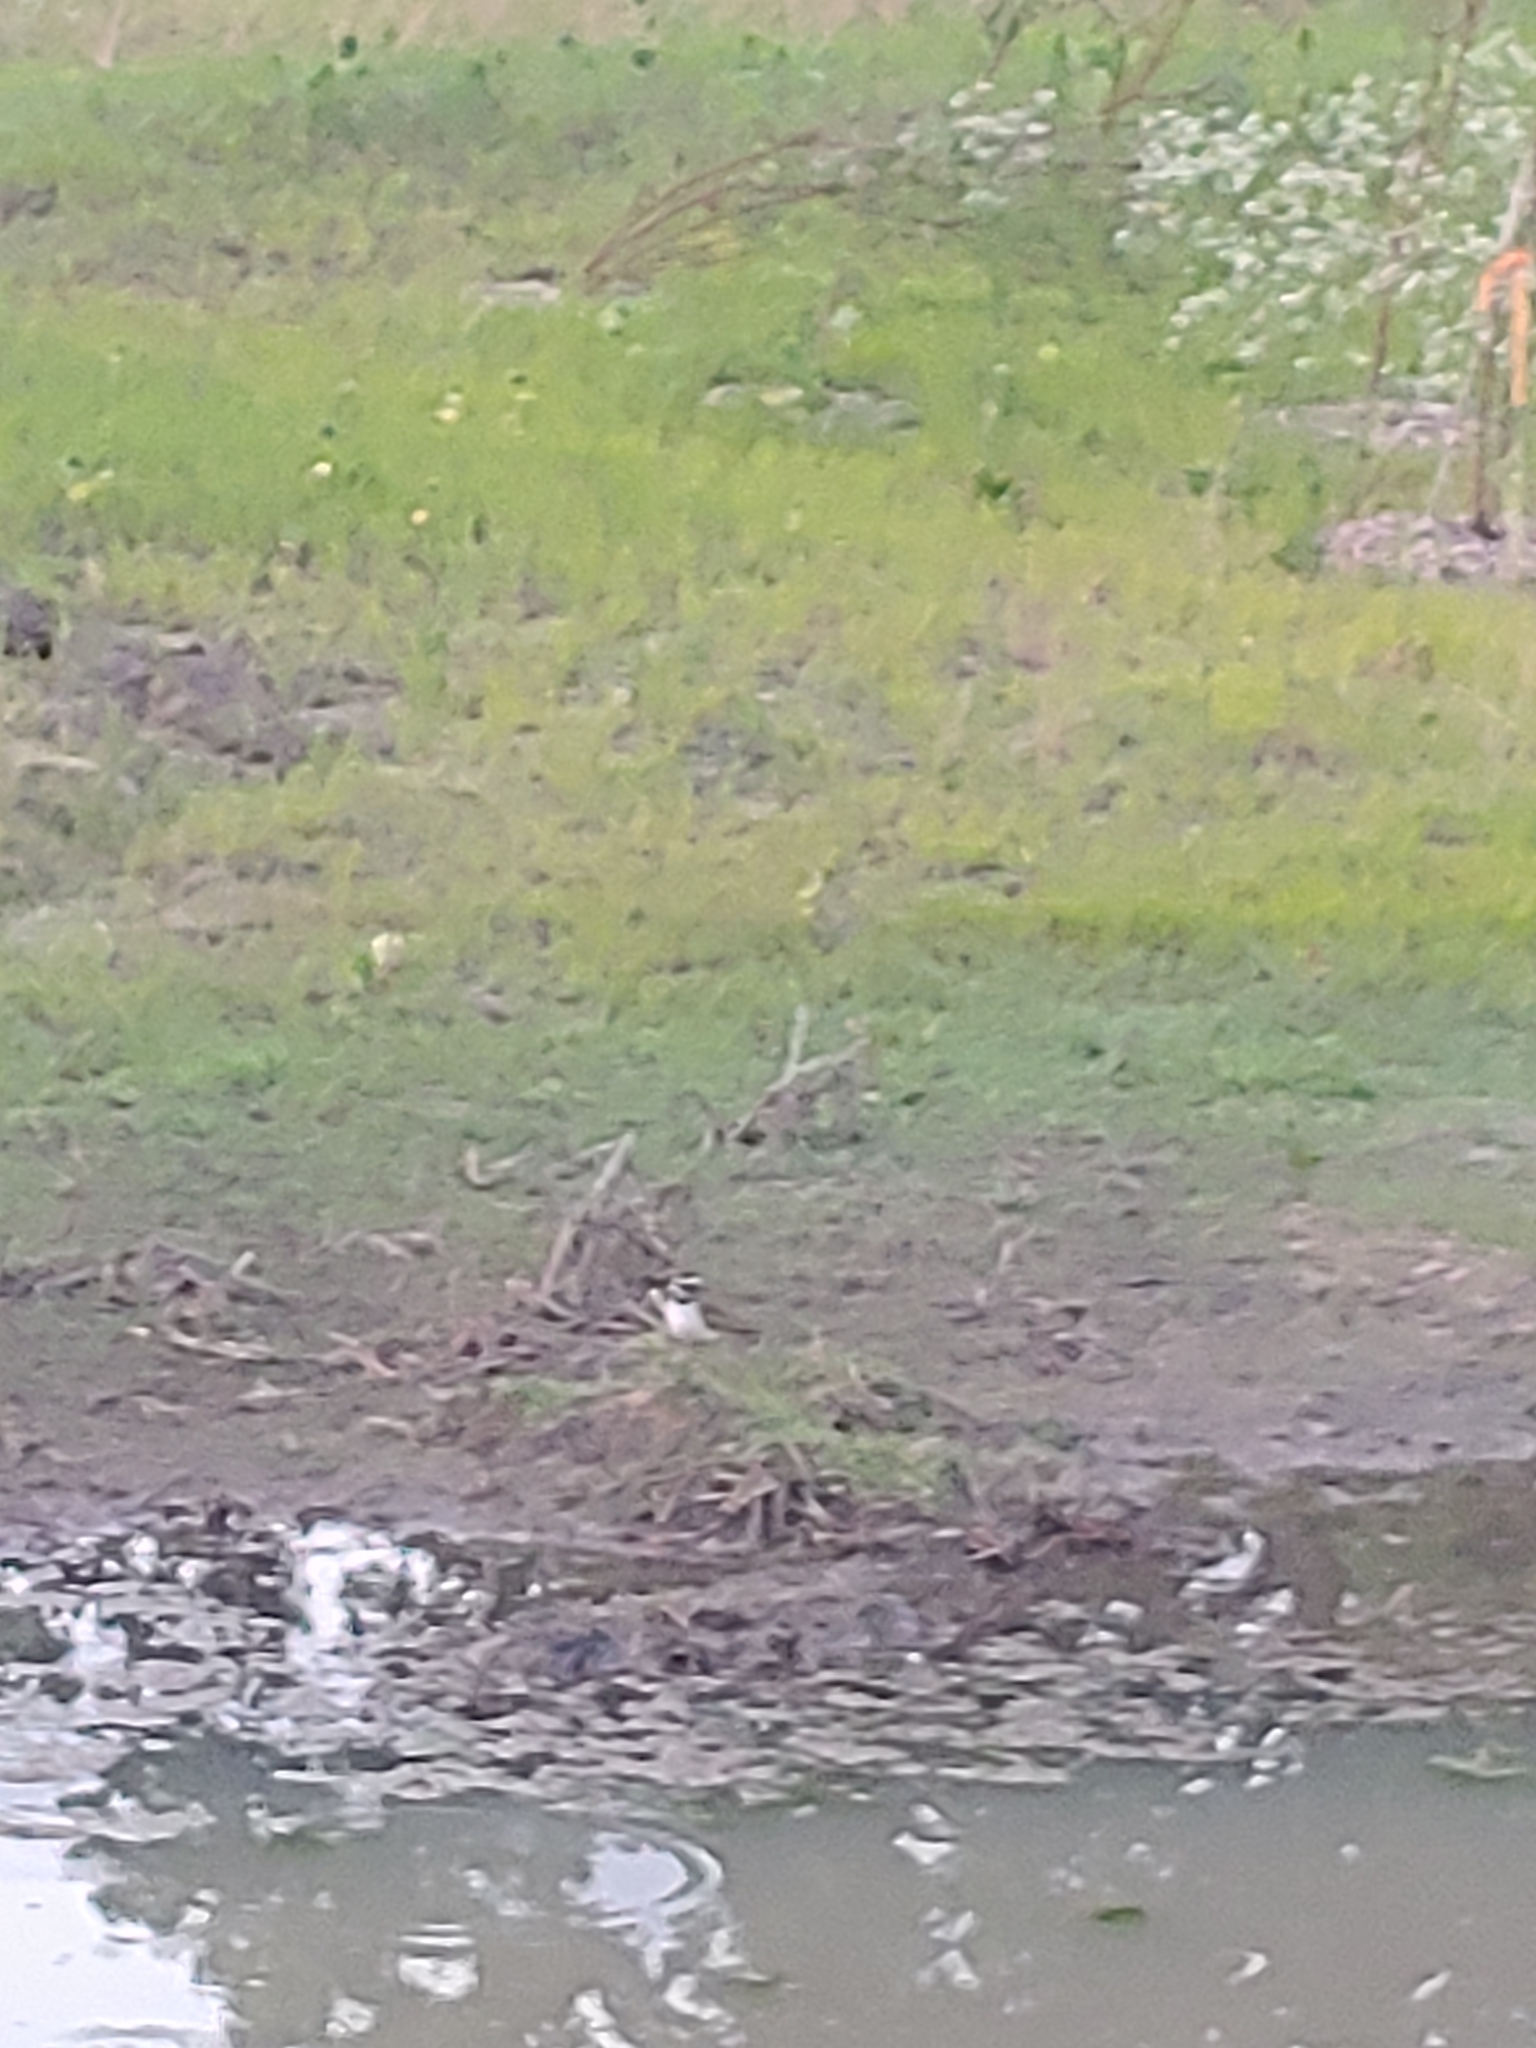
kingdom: Animalia
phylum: Chordata
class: Aves
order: Charadriiformes
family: Charadriidae
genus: Charadrius
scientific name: Charadrius vociferus
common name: Killdeer
